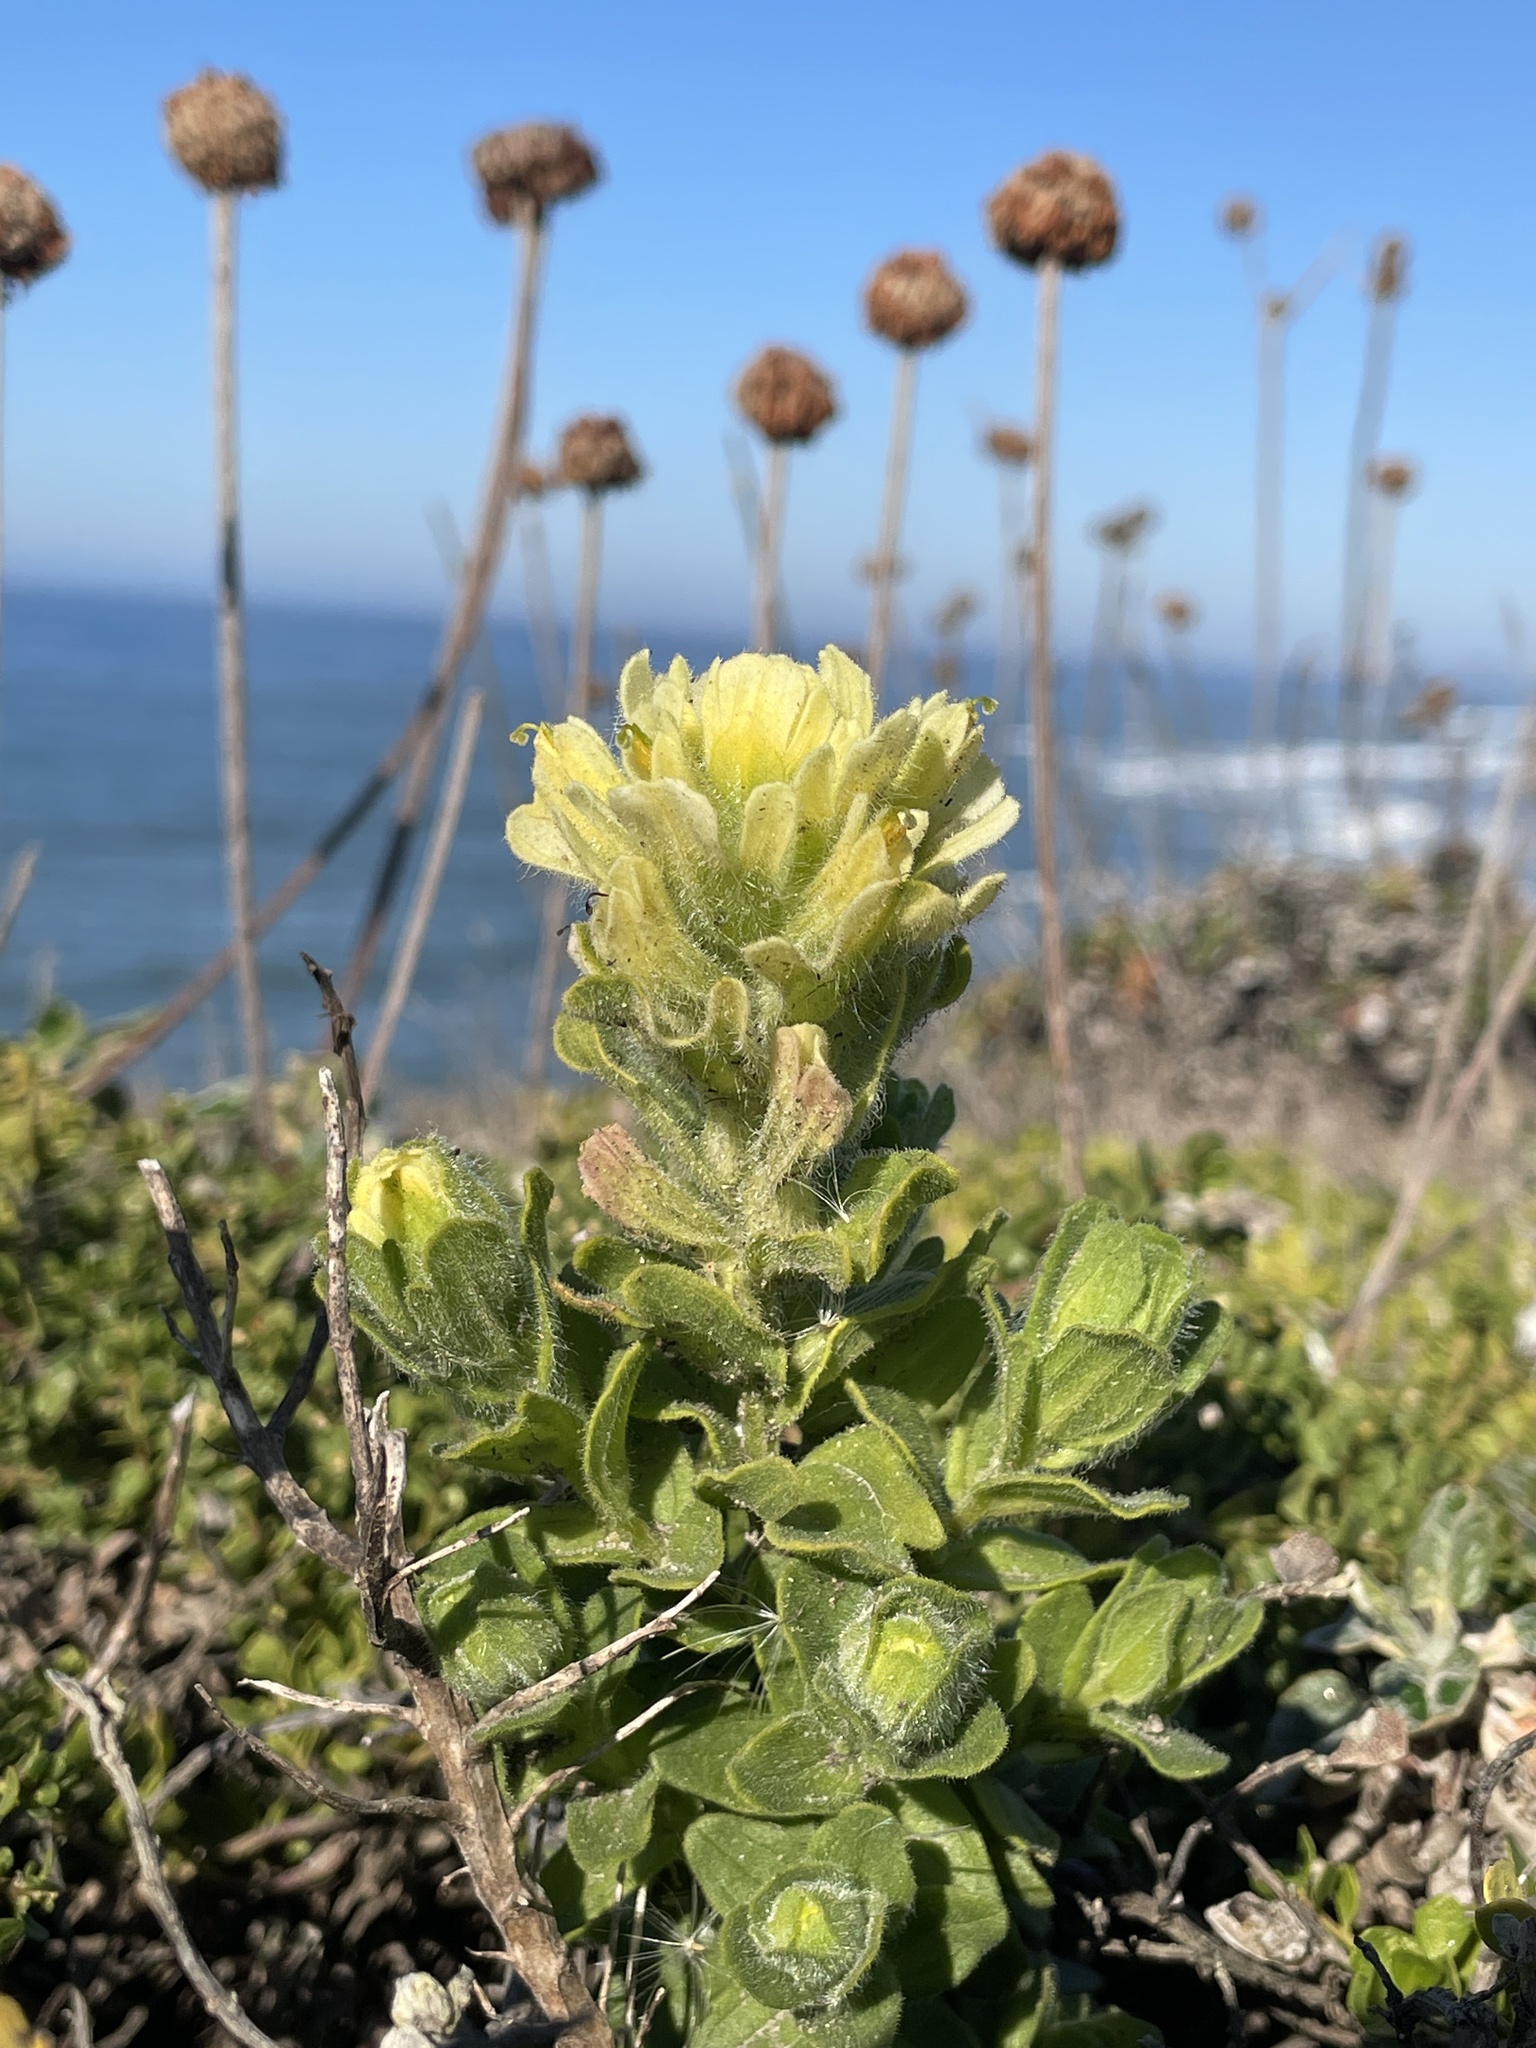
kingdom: Plantae
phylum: Tracheophyta
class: Magnoliopsida
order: Lamiales
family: Orobanchaceae
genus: Castilleja
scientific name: Castilleja wightii
